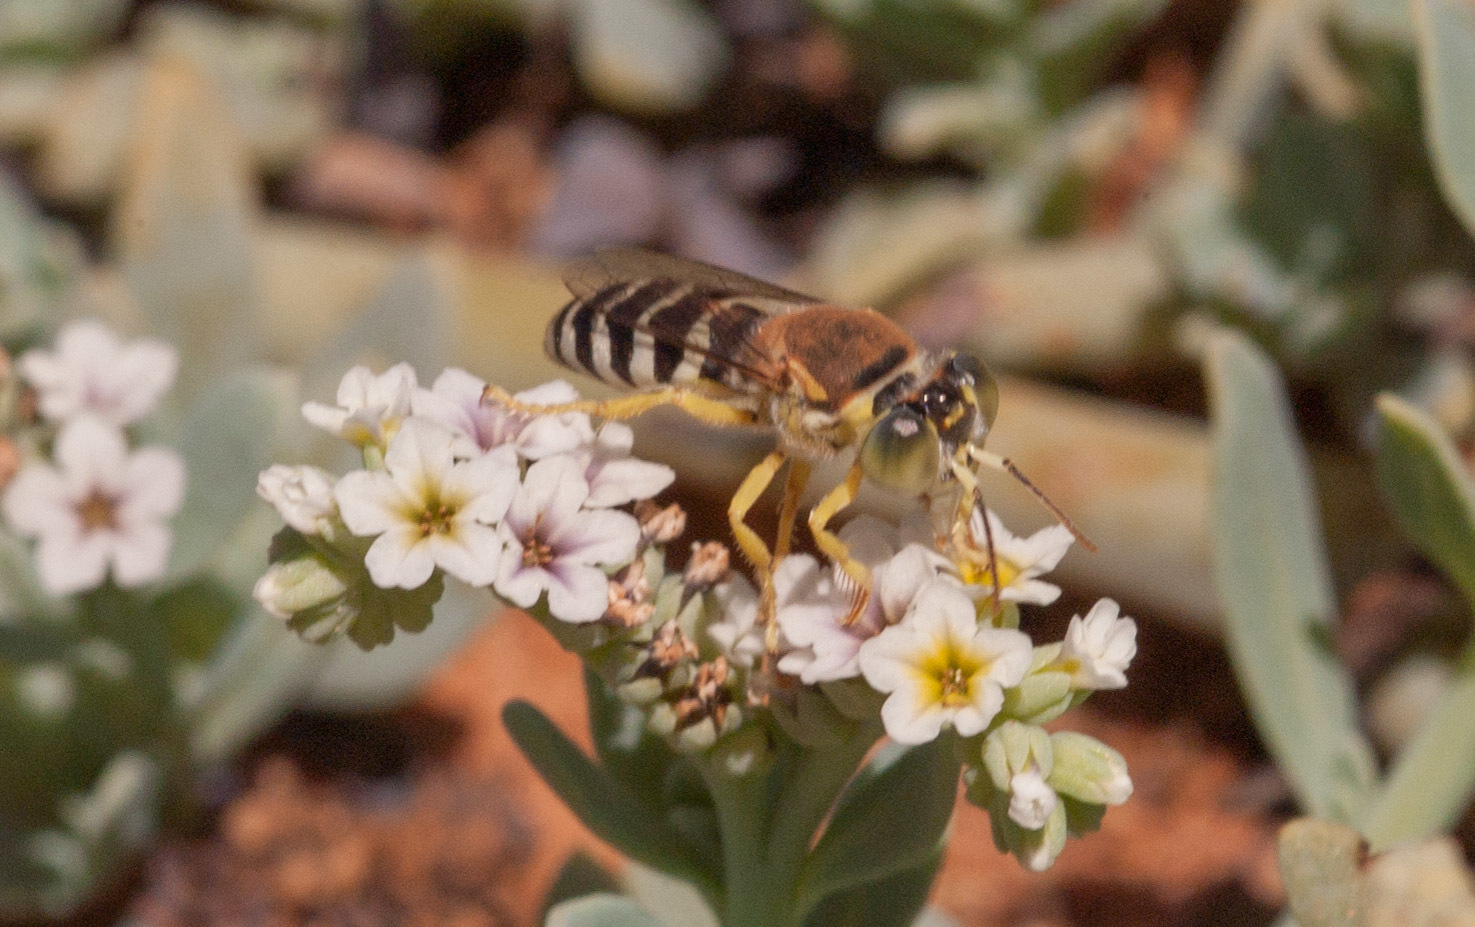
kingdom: Animalia
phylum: Arthropoda
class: Insecta
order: Hymenoptera
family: Crabronidae
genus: Bembix
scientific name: Bembix
